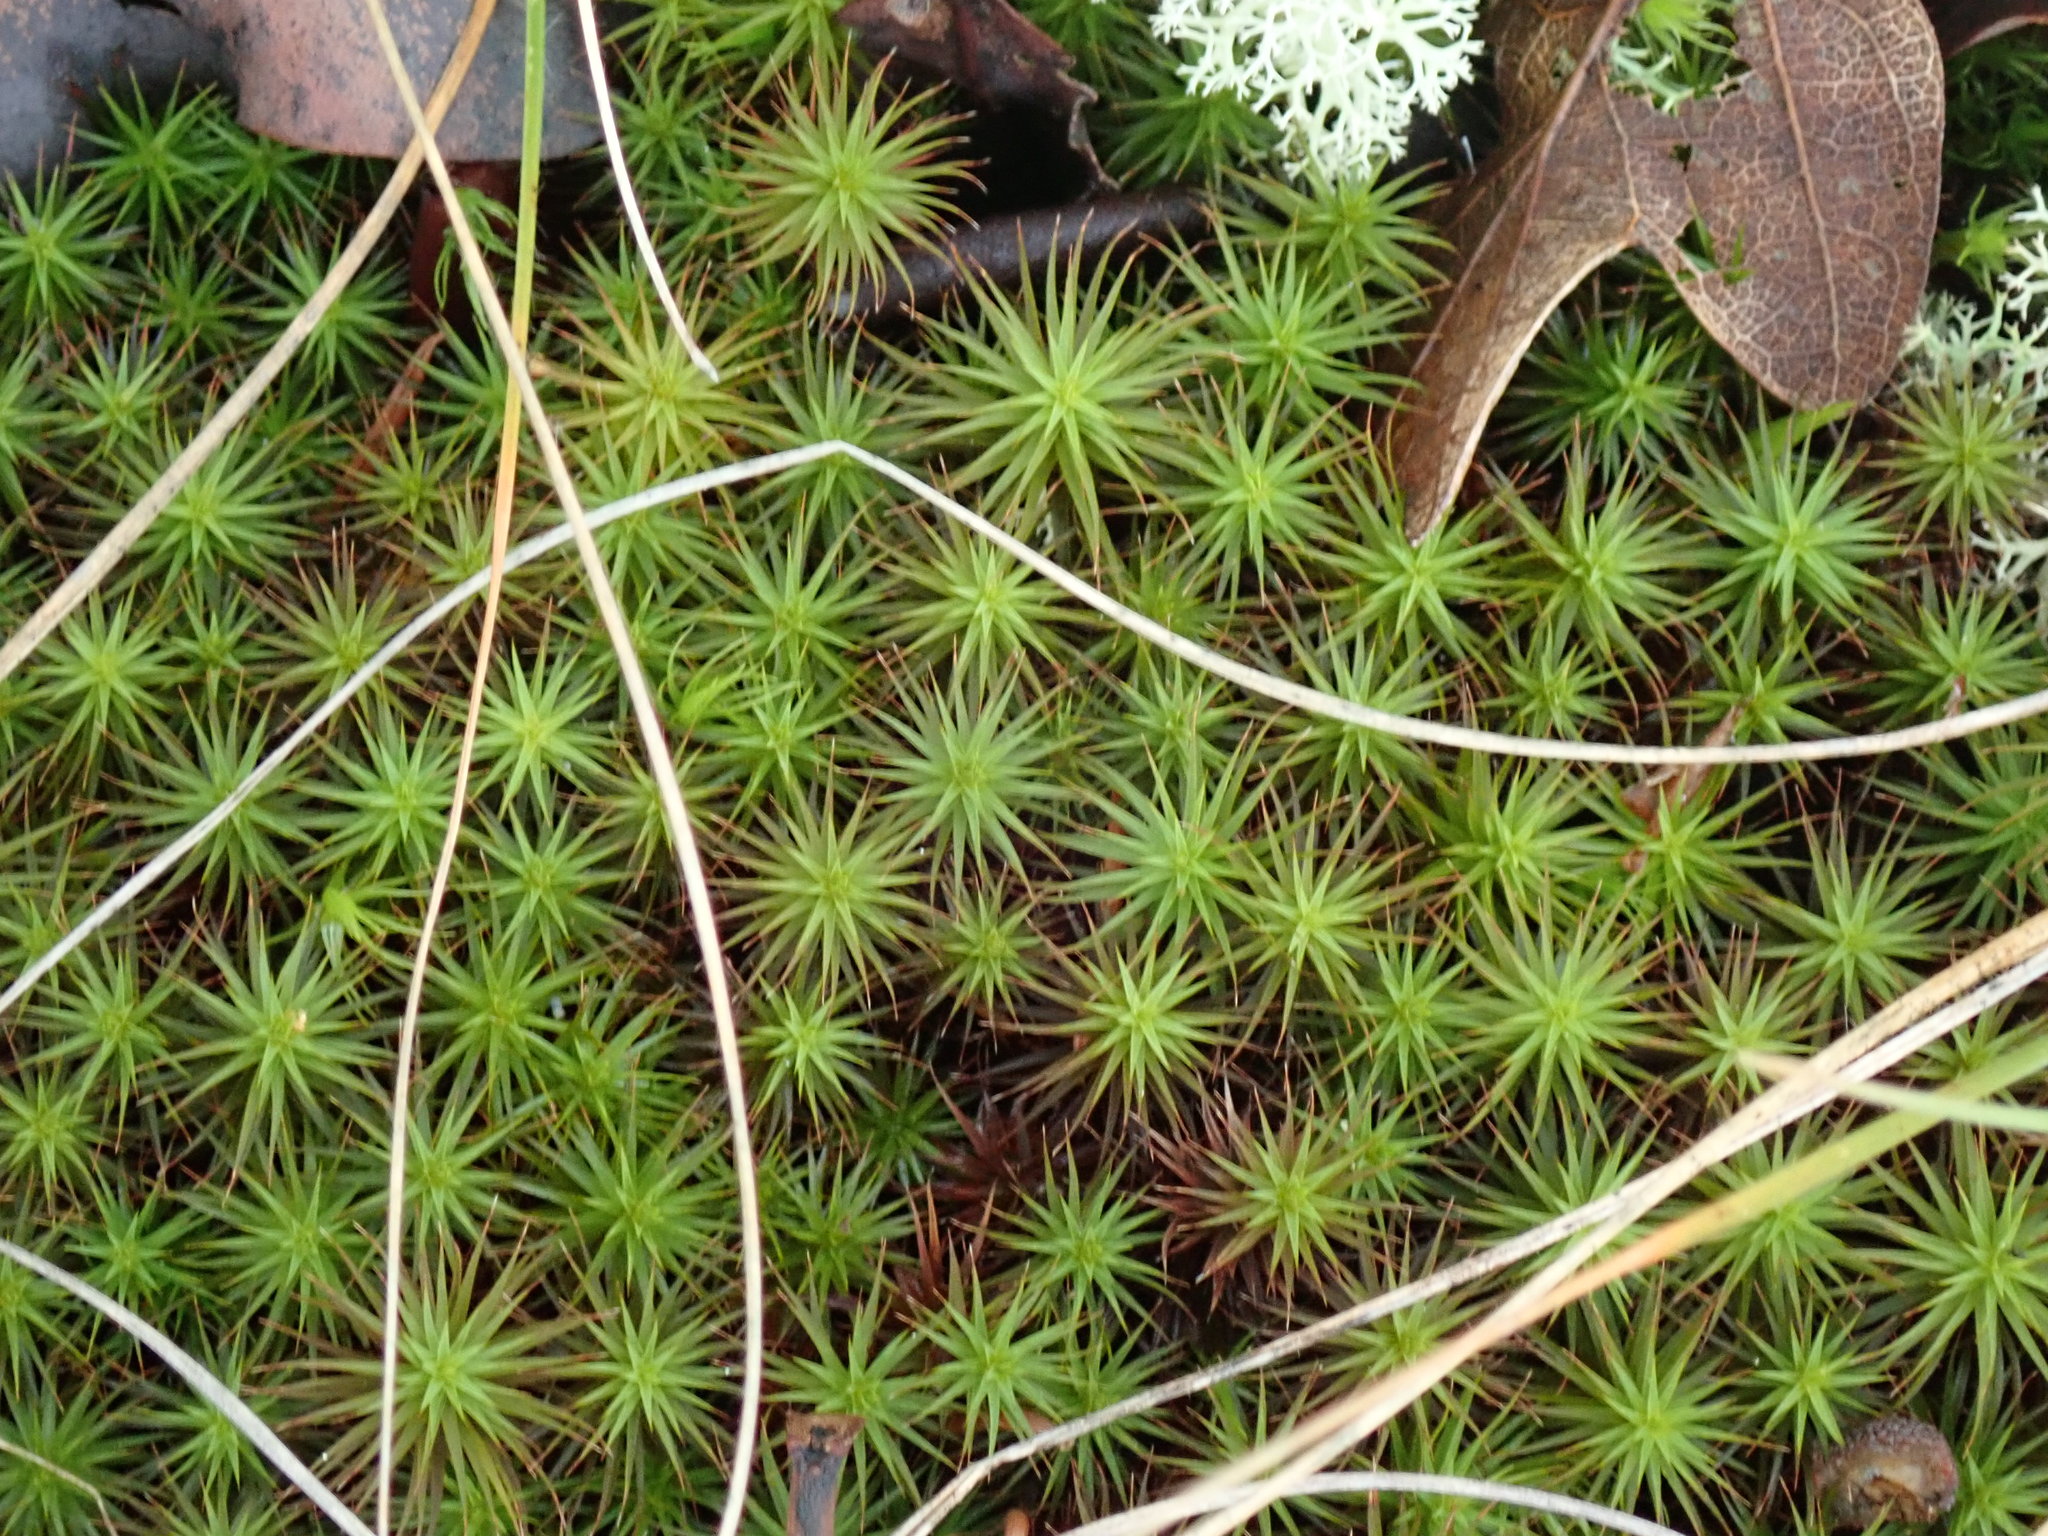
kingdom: Plantae
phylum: Bryophyta
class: Polytrichopsida
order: Polytrichales
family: Polytrichaceae
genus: Polytrichum
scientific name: Polytrichum commune
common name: Common haircap
